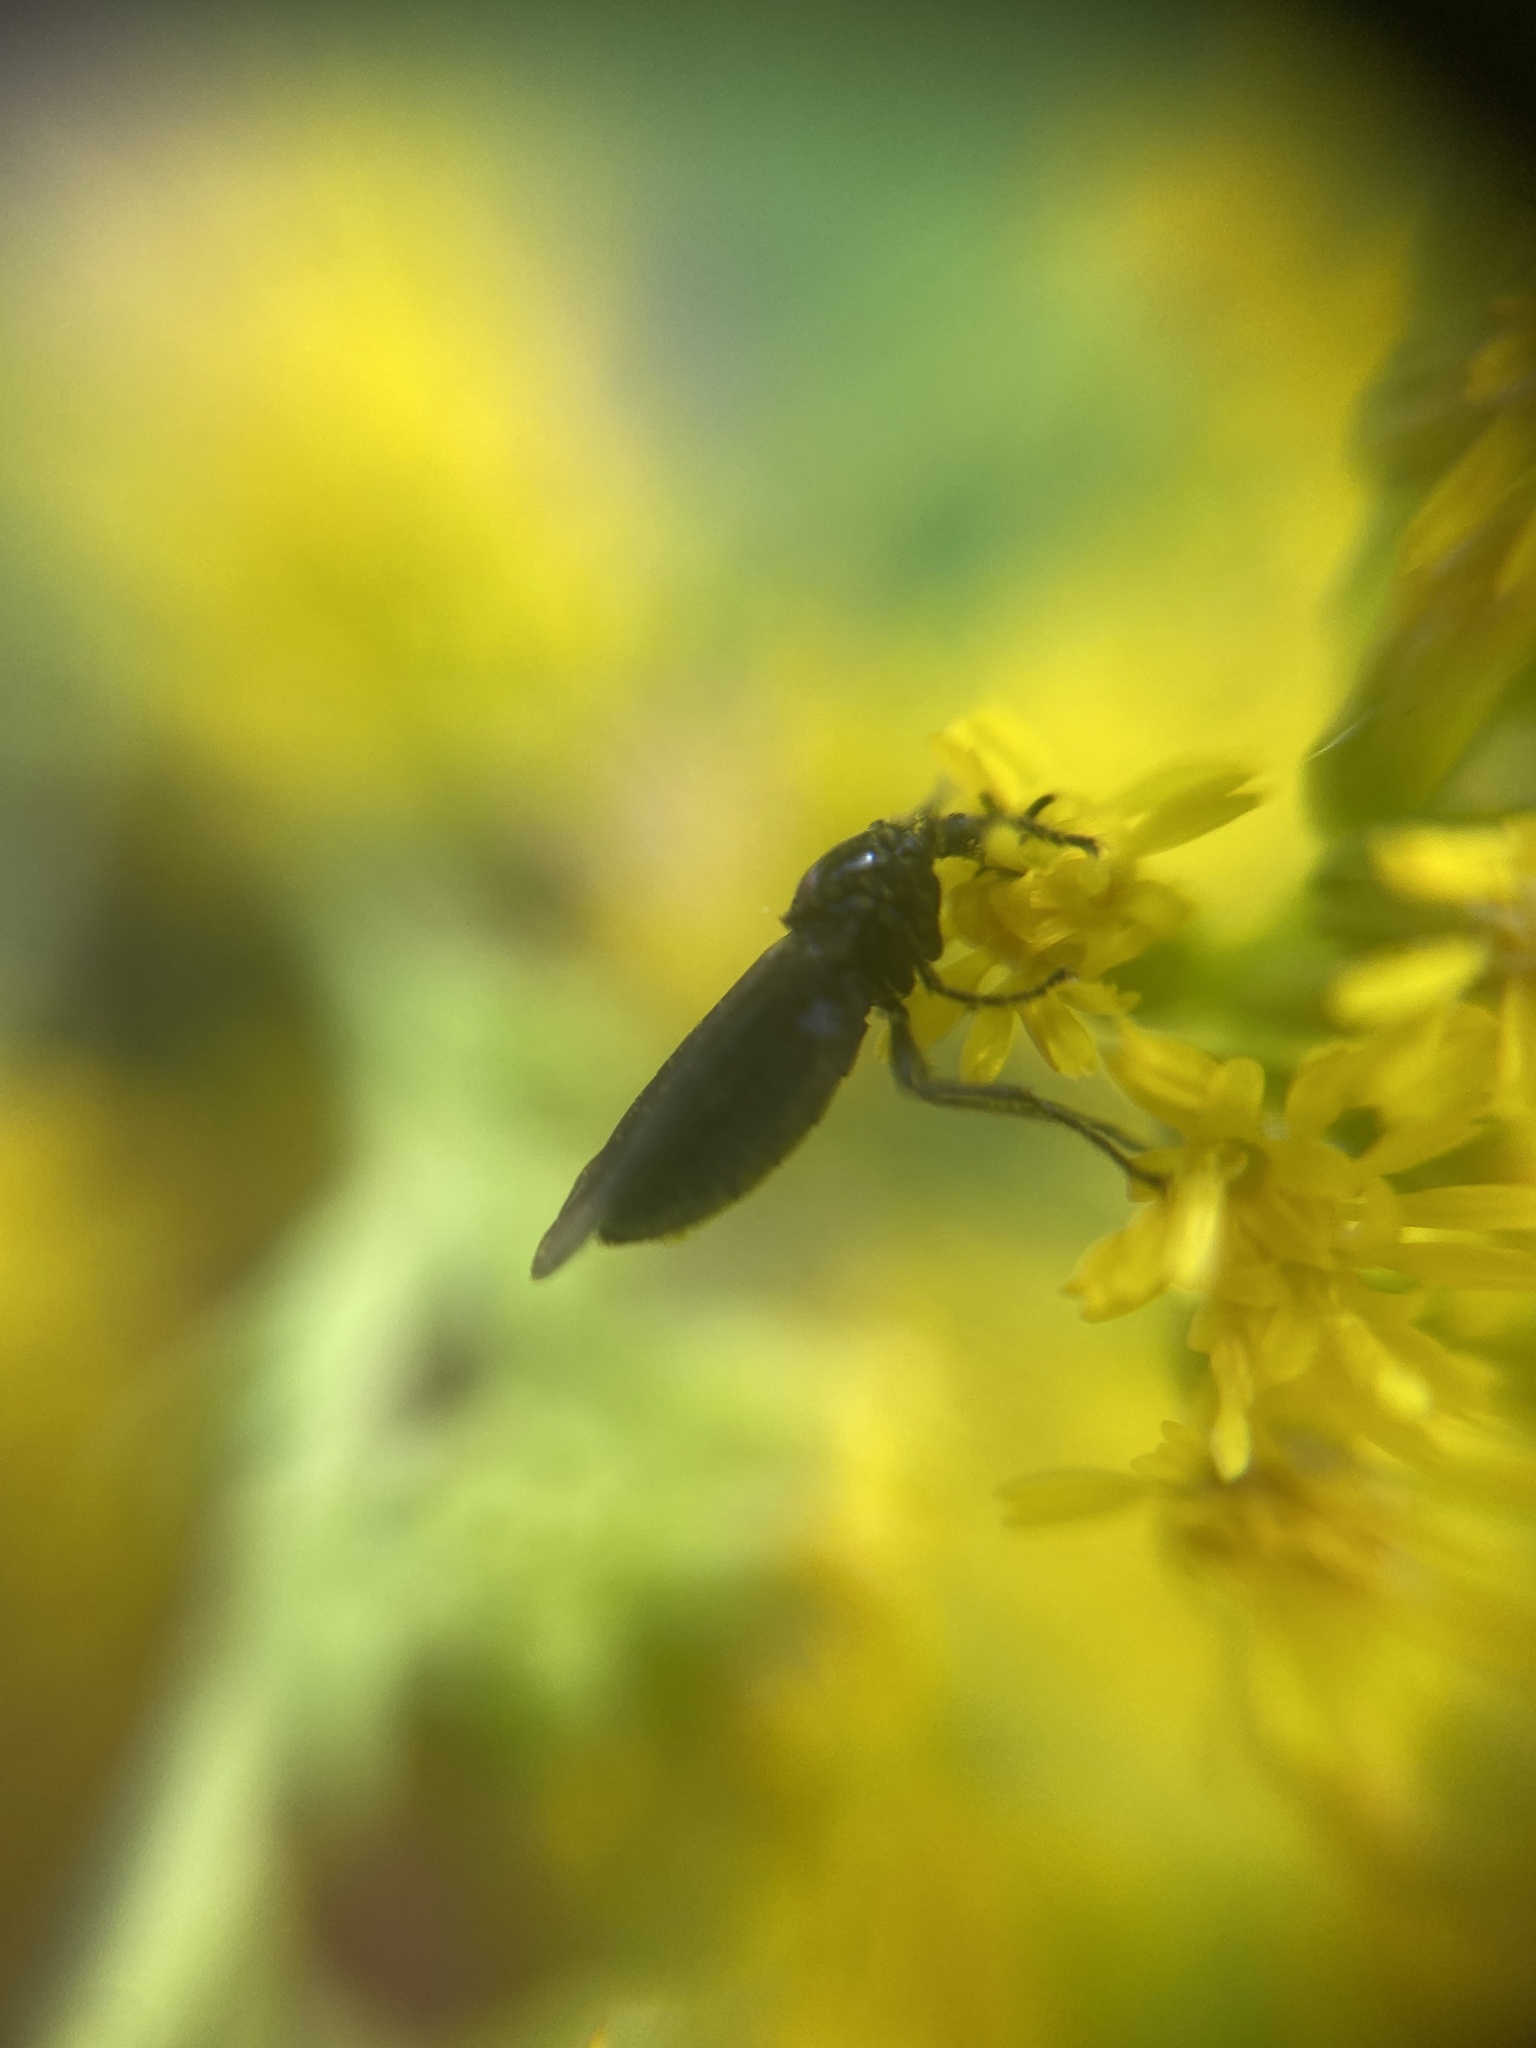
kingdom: Animalia
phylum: Arthropoda
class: Insecta
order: Diptera
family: Bibionidae
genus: Dilophus
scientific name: Dilophus febrilis
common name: Fever fly
